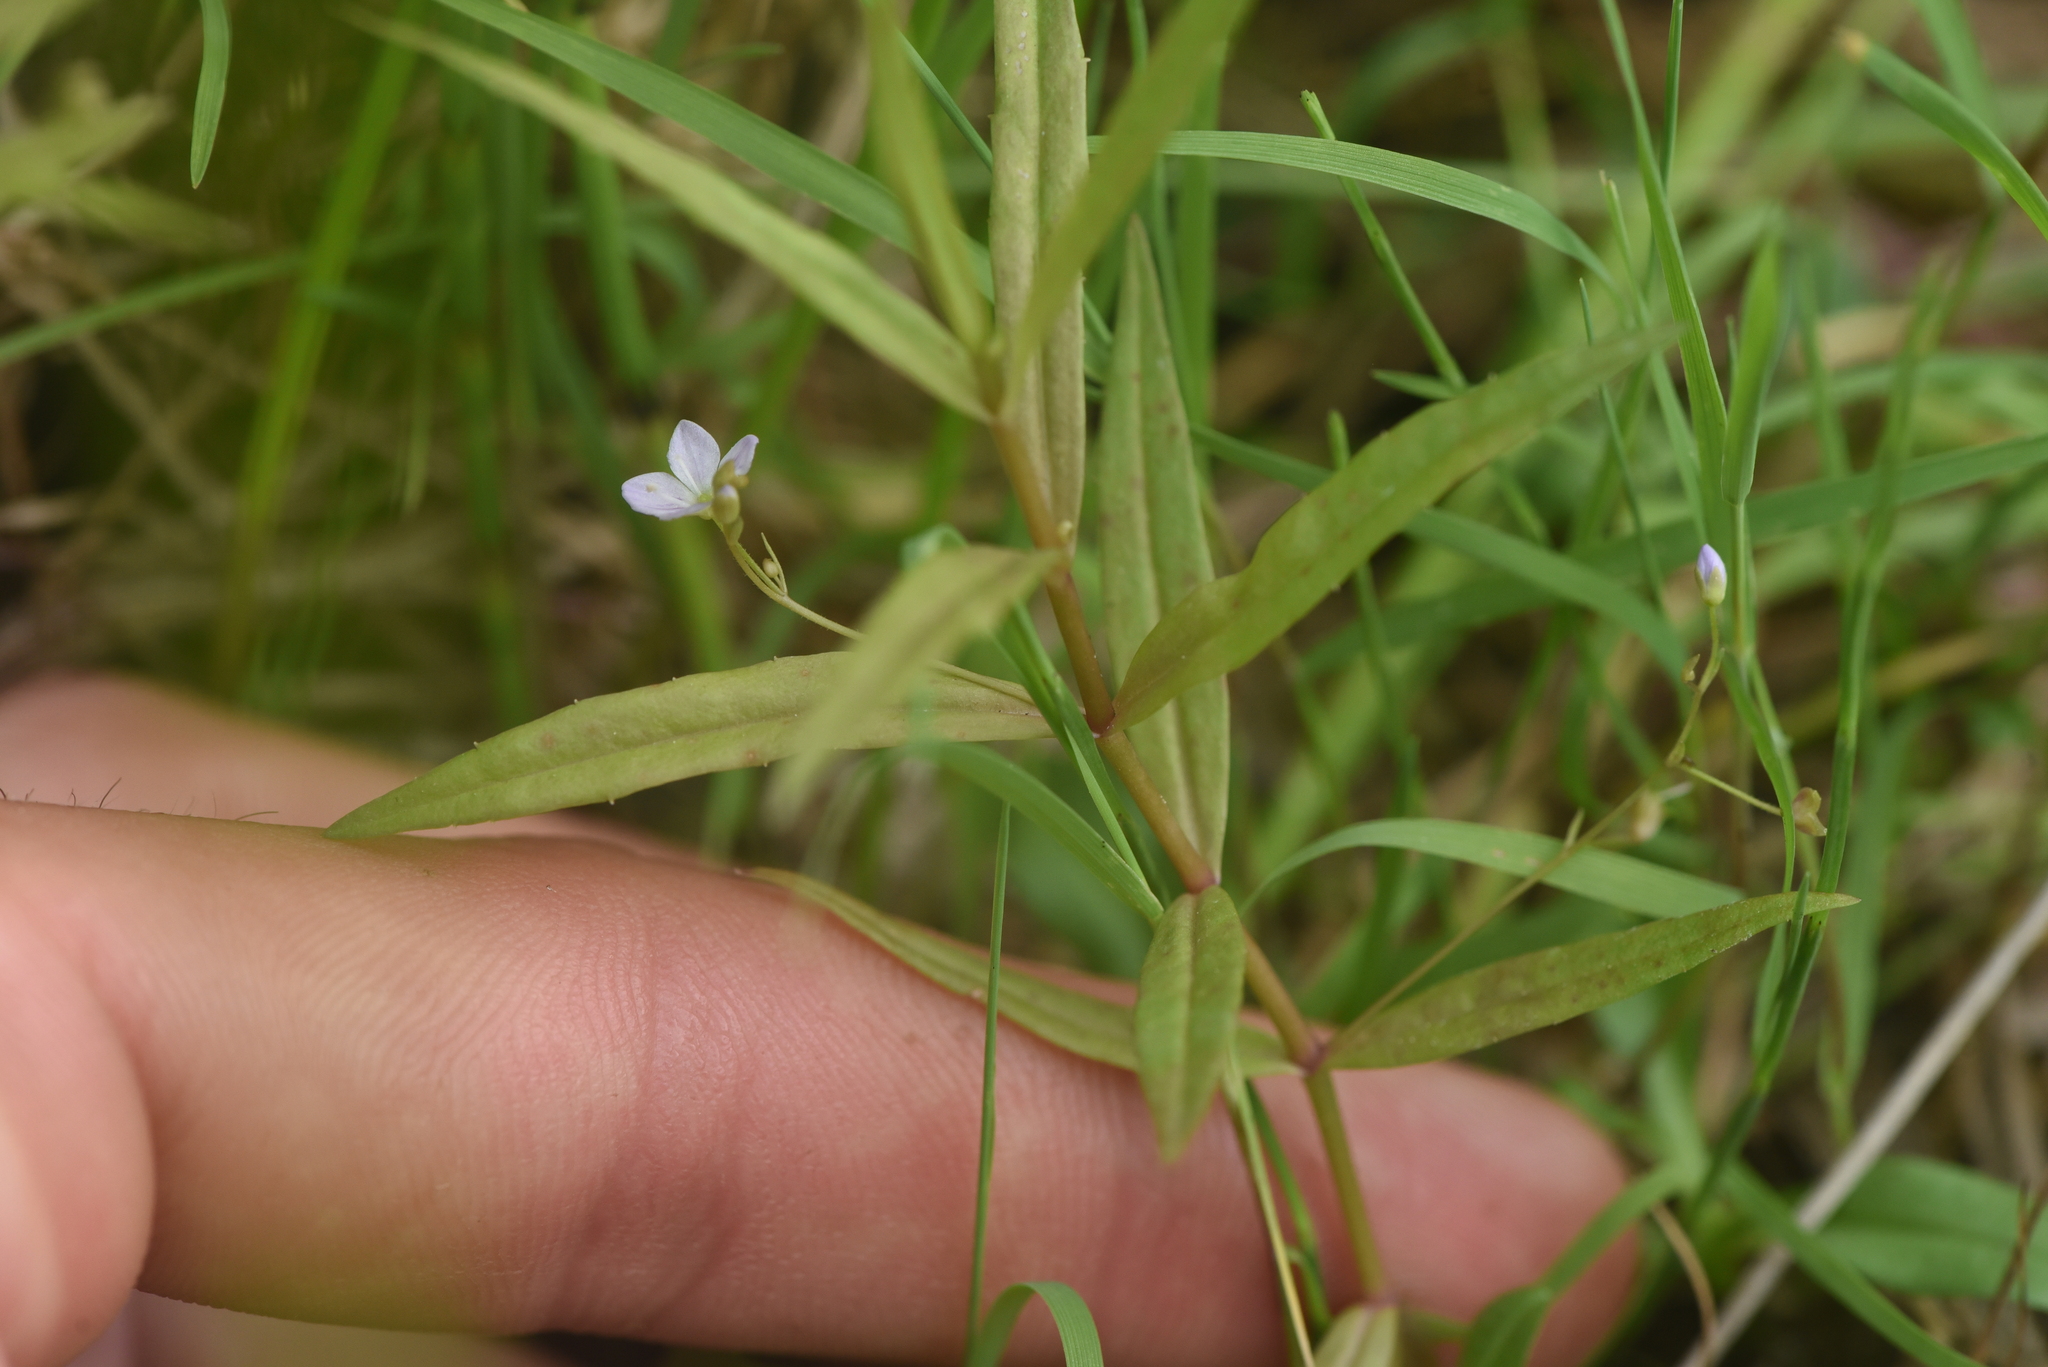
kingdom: Plantae
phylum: Tracheophyta
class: Magnoliopsida
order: Lamiales
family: Plantaginaceae
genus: Veronica
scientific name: Veronica scutellata
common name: Marsh speedwell
